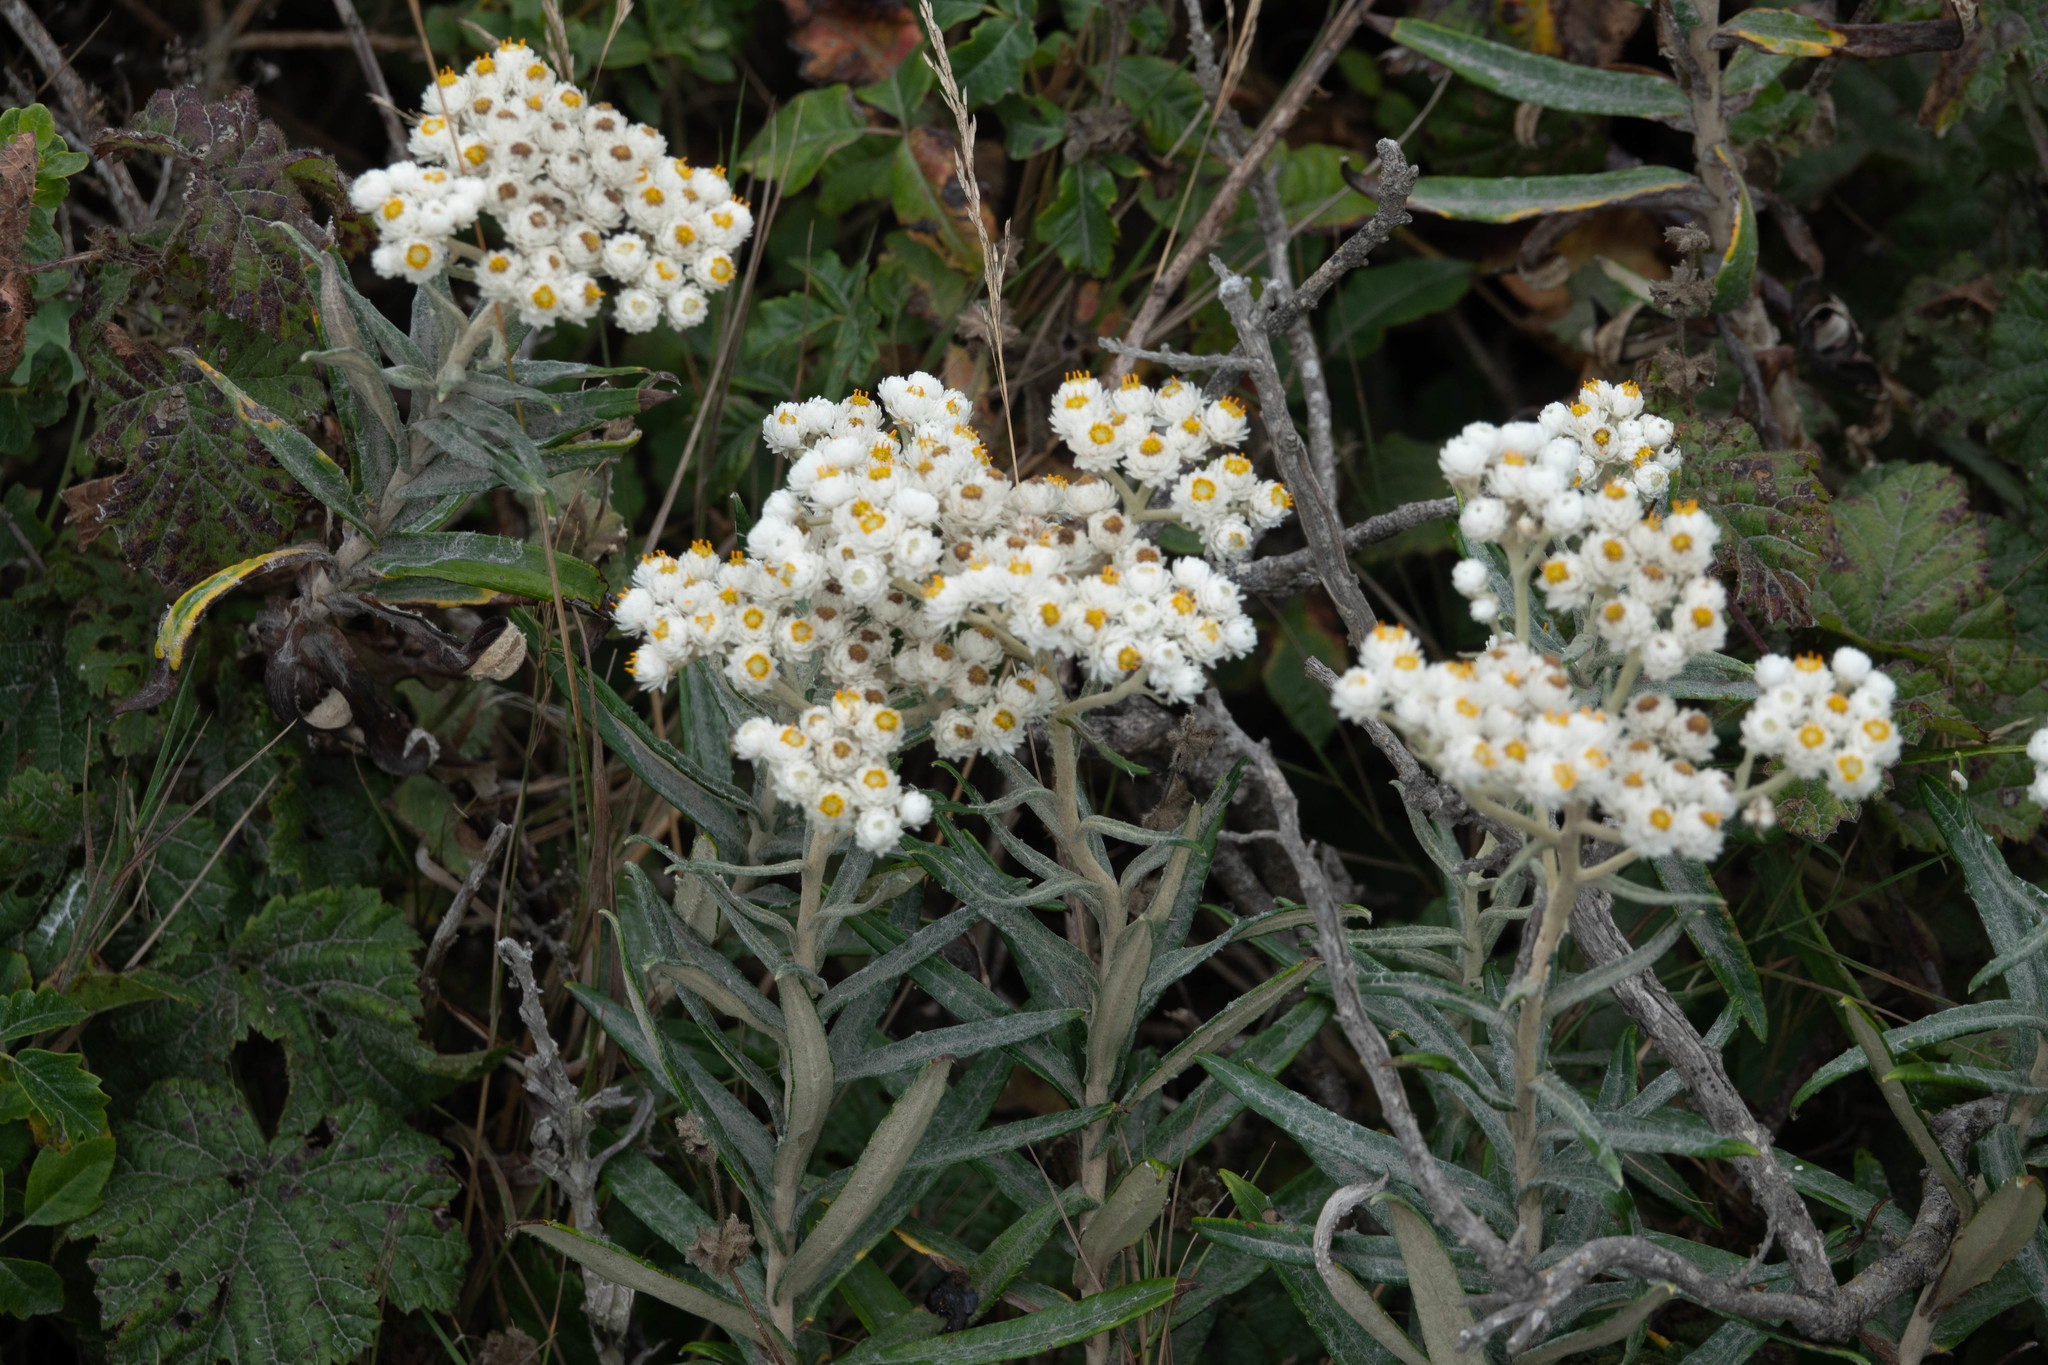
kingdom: Plantae
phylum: Tracheophyta
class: Magnoliopsida
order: Asterales
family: Asteraceae
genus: Anaphalis
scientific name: Anaphalis margaritacea
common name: Pearly everlasting
